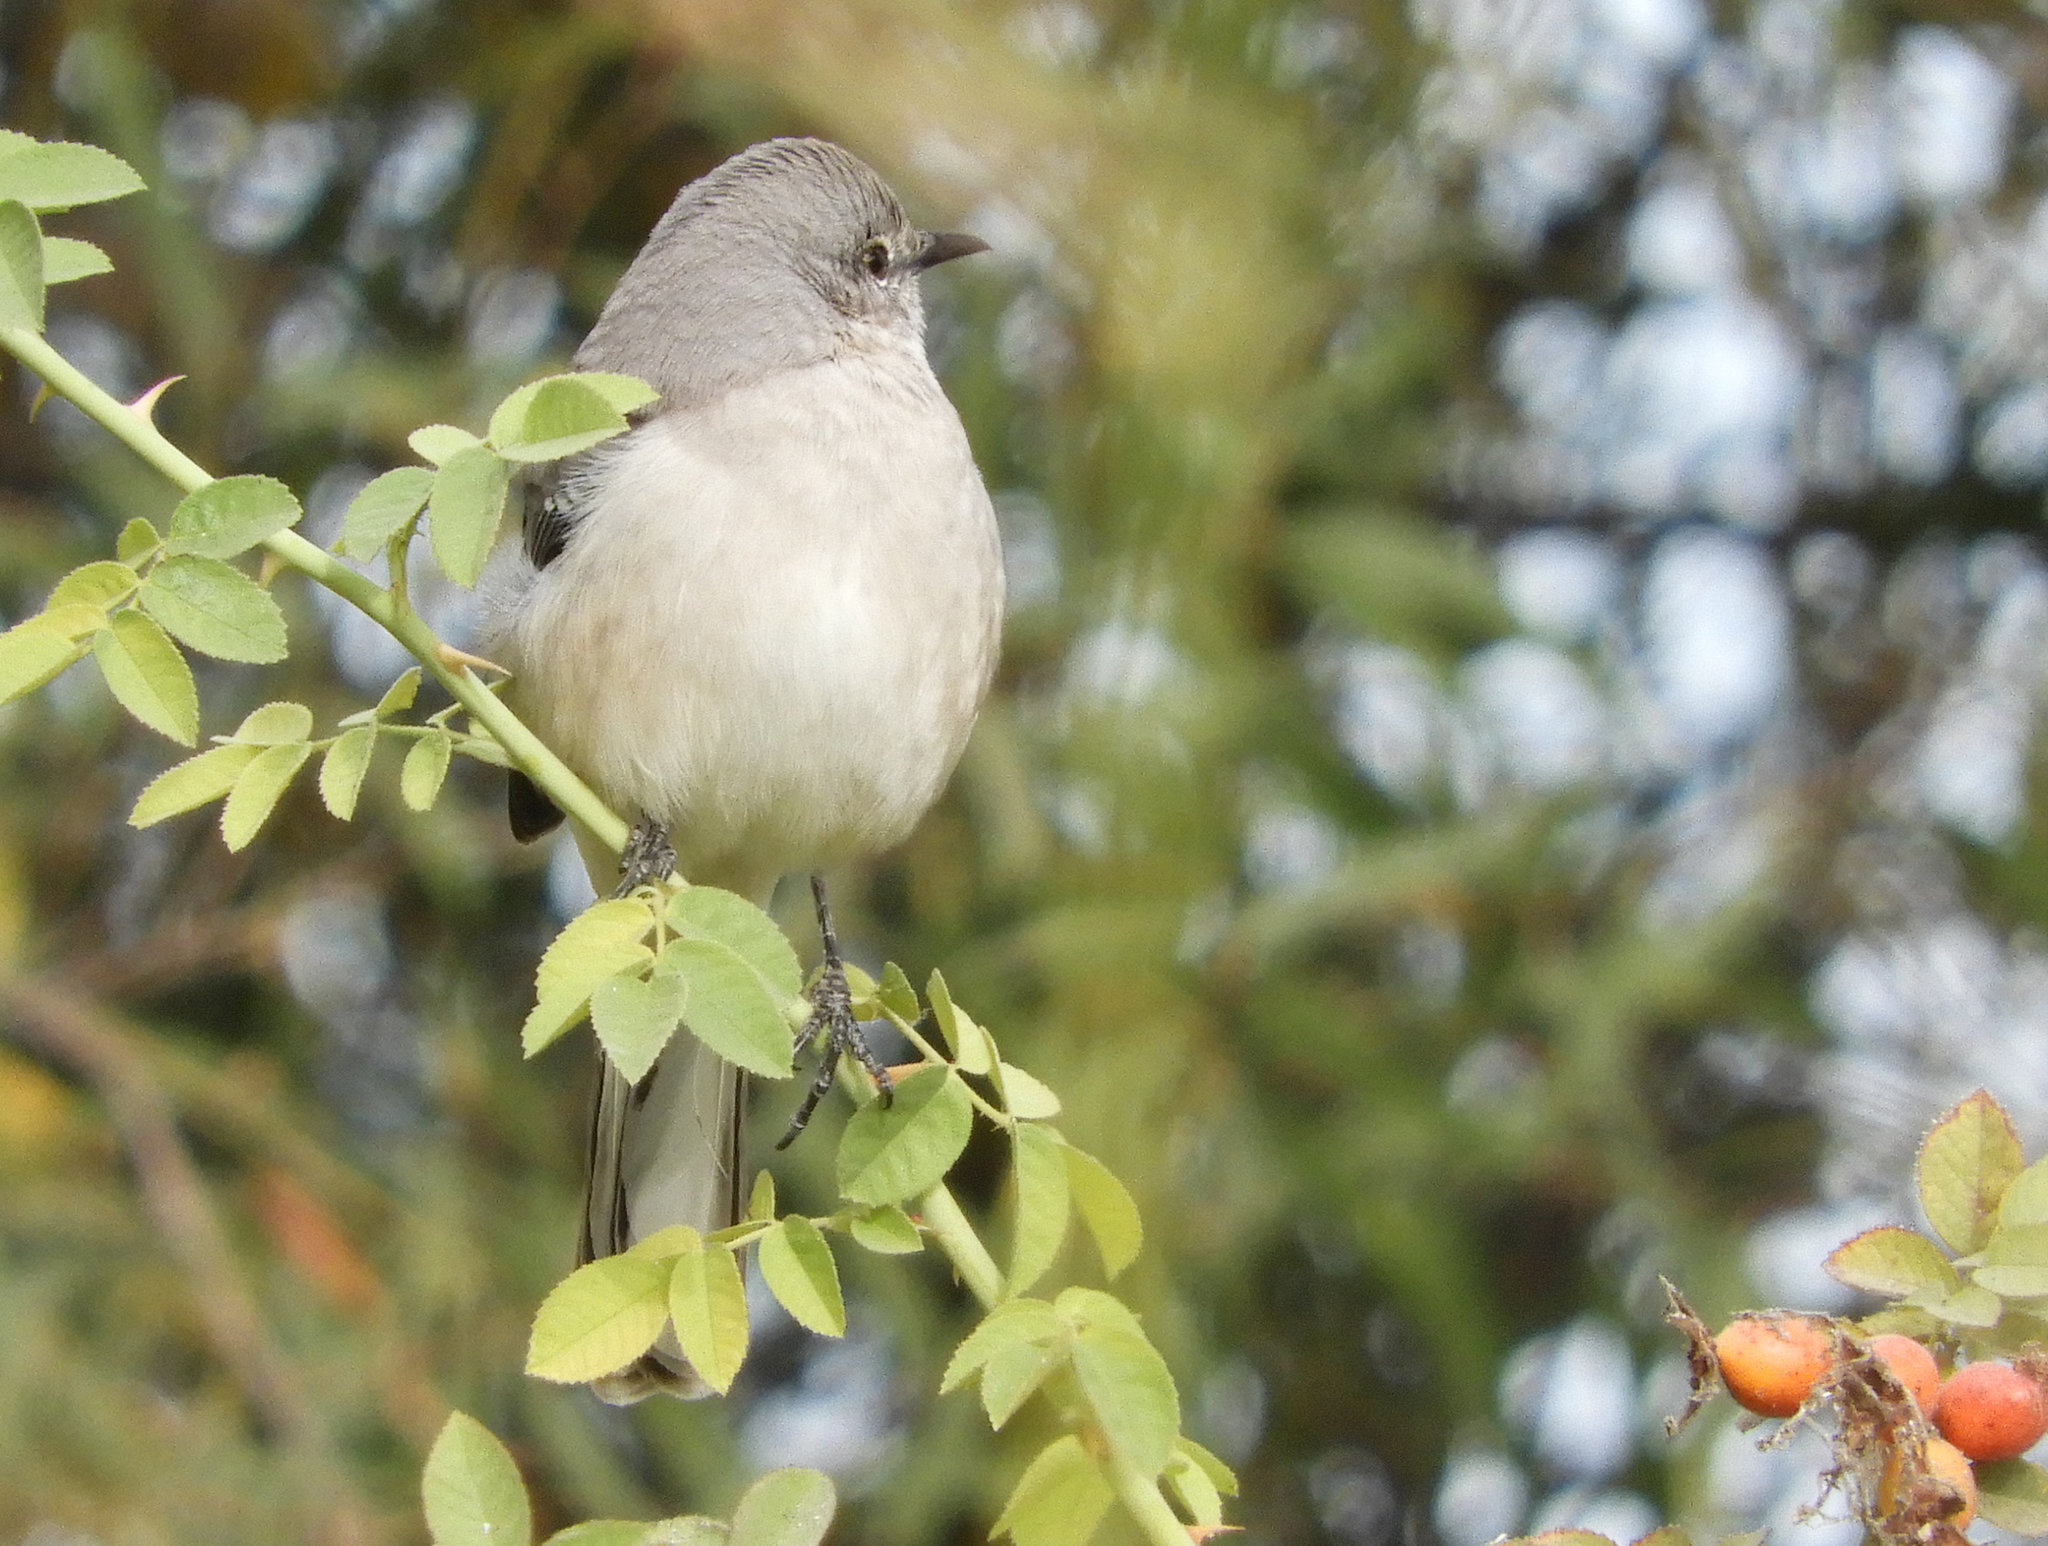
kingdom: Animalia
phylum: Chordata
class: Aves
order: Passeriformes
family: Mimidae
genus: Mimus
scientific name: Mimus polyglottos
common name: Northern mockingbird
